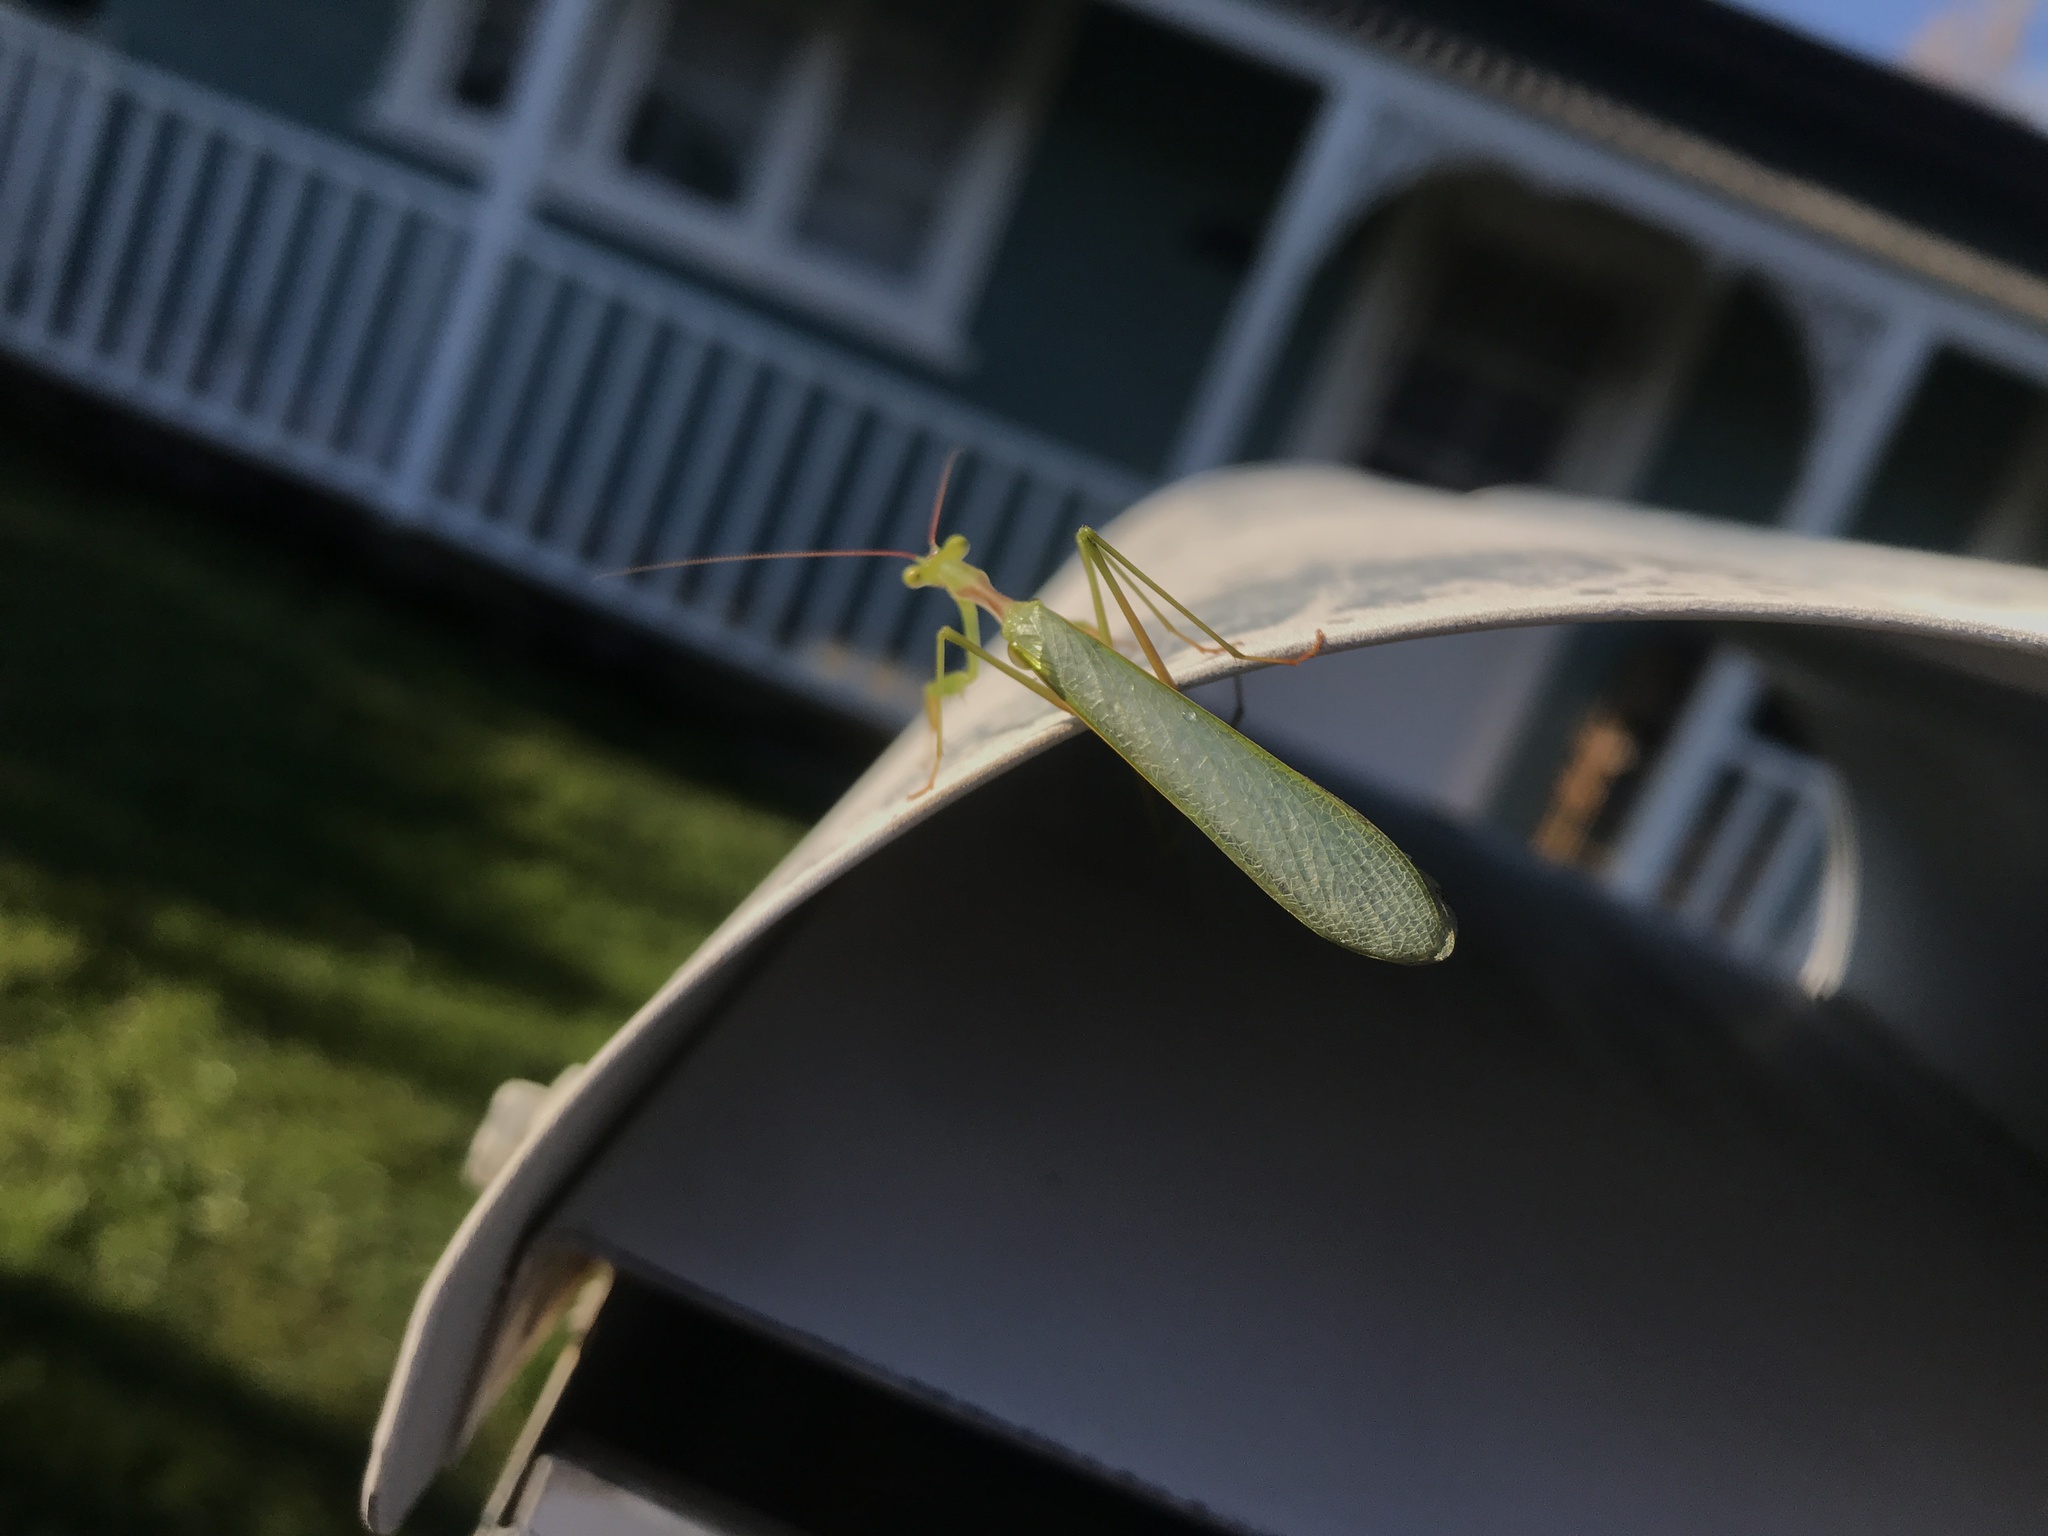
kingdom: Animalia
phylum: Arthropoda
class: Insecta
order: Mantodea
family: Miomantidae
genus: Miomantis
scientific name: Miomantis caffra
